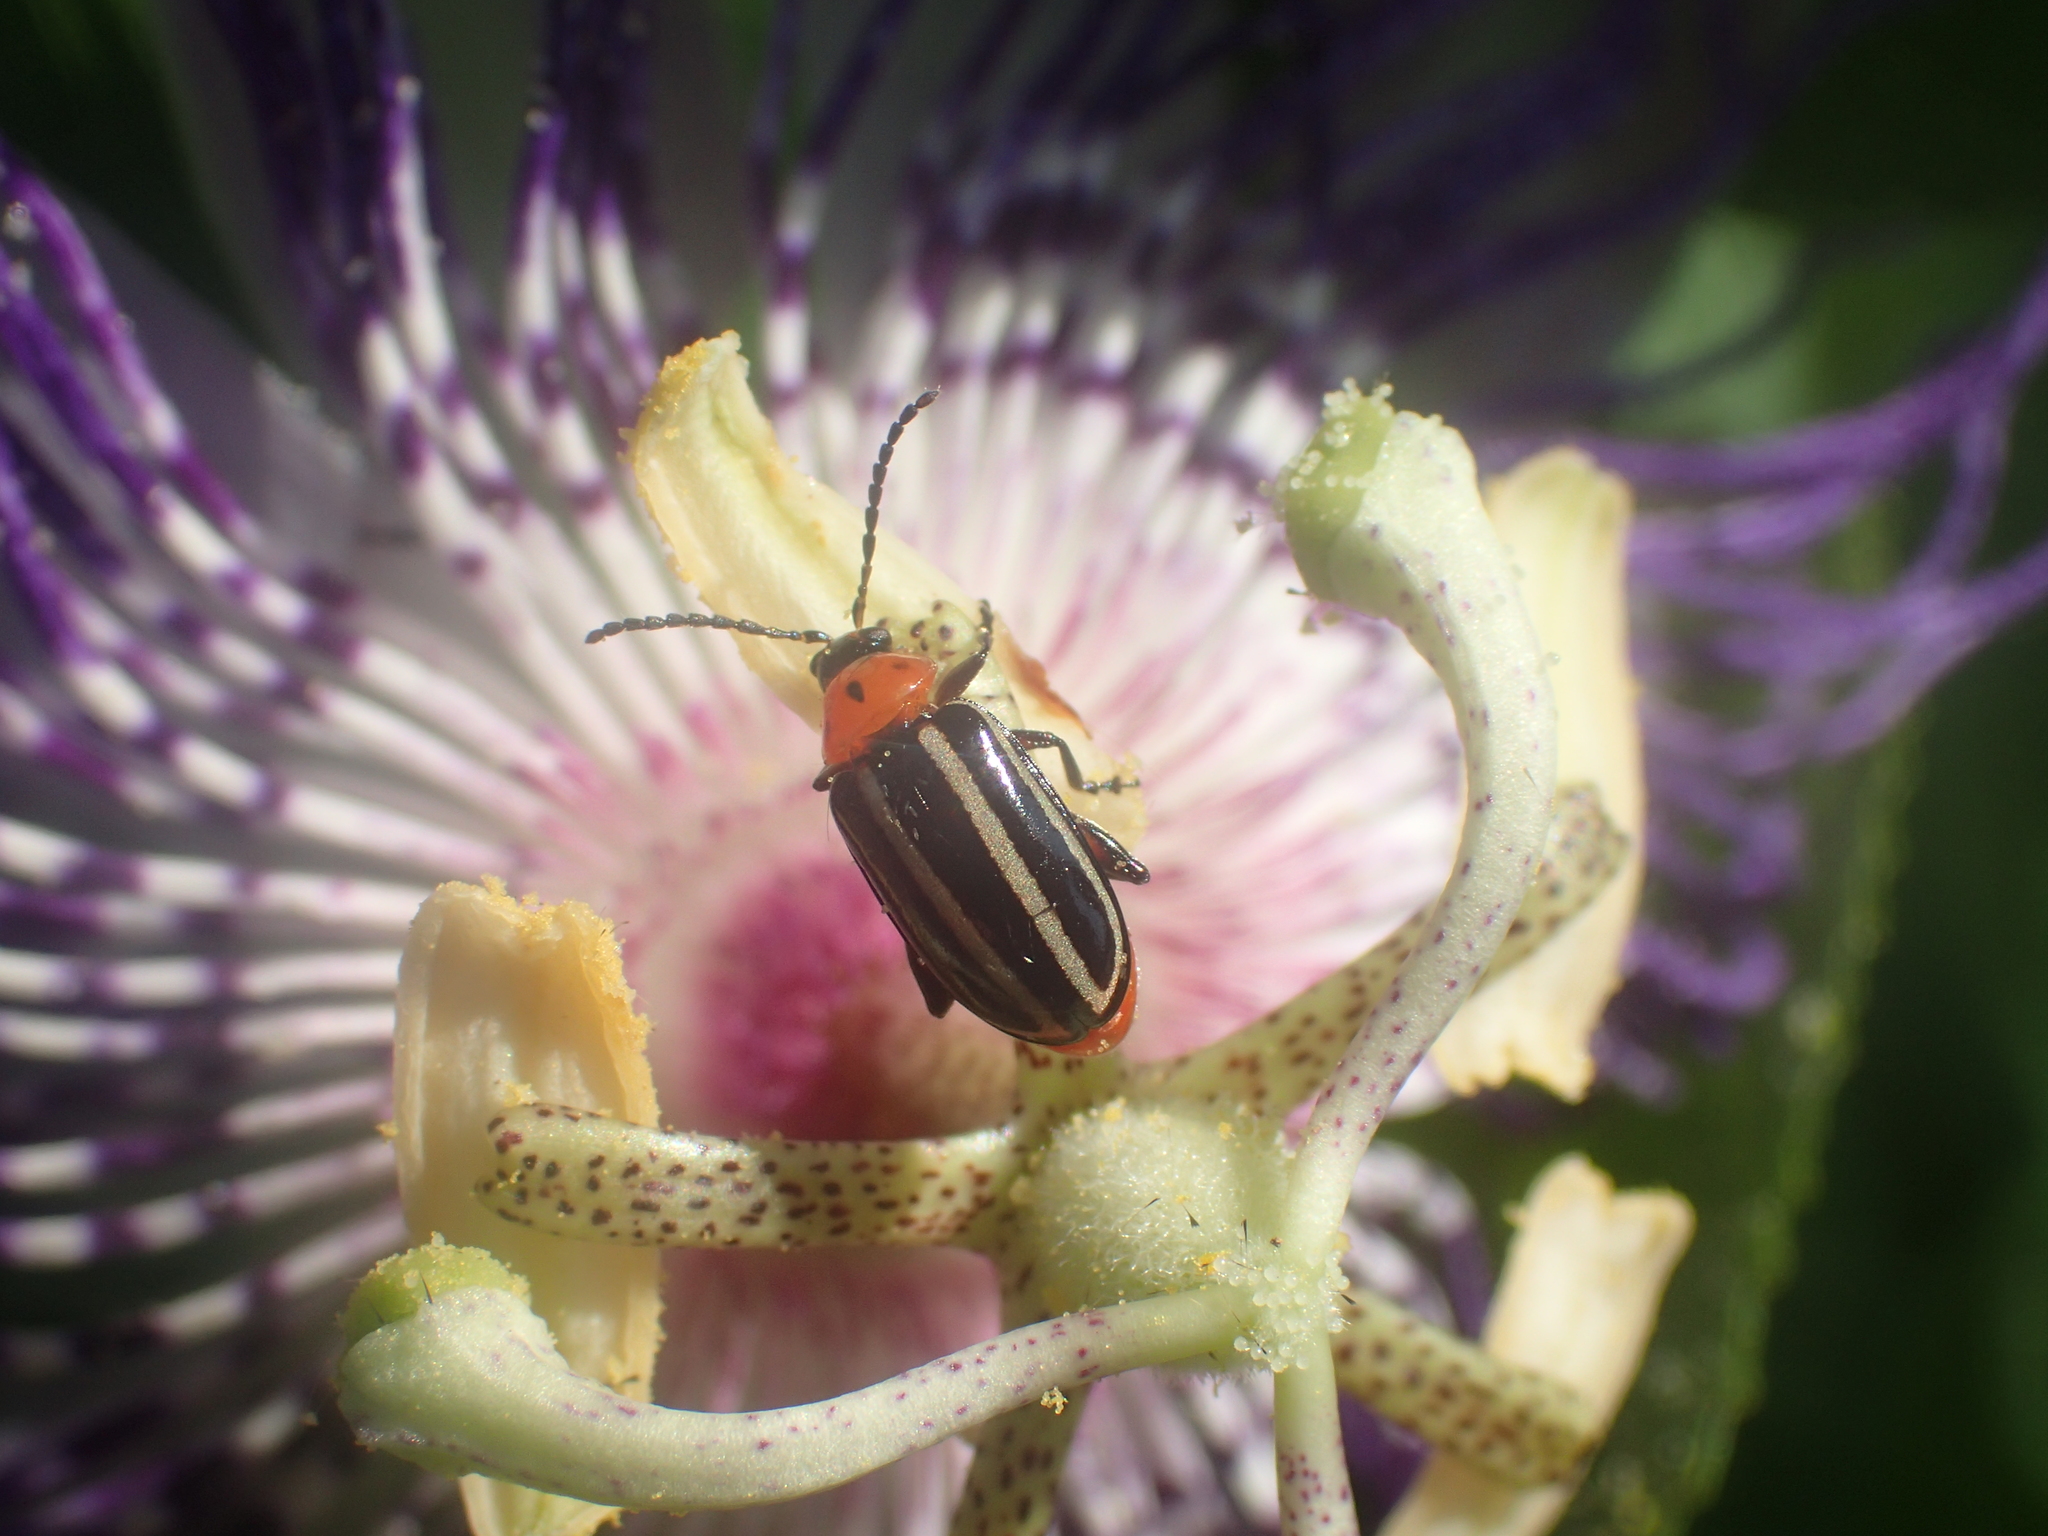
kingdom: Animalia
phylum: Arthropoda
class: Insecta
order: Coleoptera
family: Chrysomelidae
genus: Disonycha
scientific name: Disonycha glabrata
